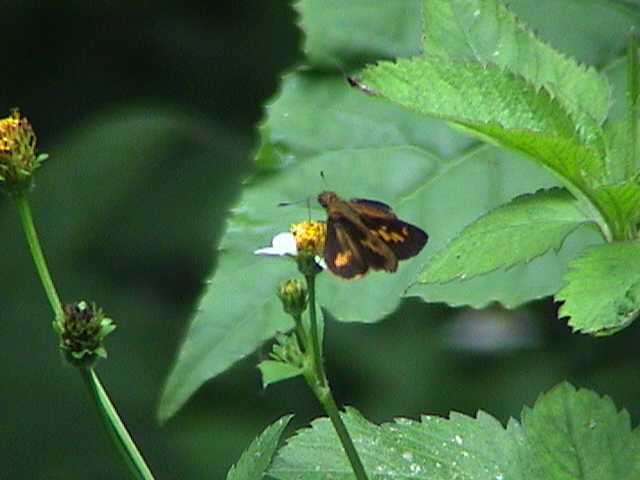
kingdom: Animalia
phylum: Arthropoda
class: Insecta
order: Lepidoptera
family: Hesperiidae
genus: Oriens
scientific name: Oriens concinna
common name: Sahyadri dartlet
